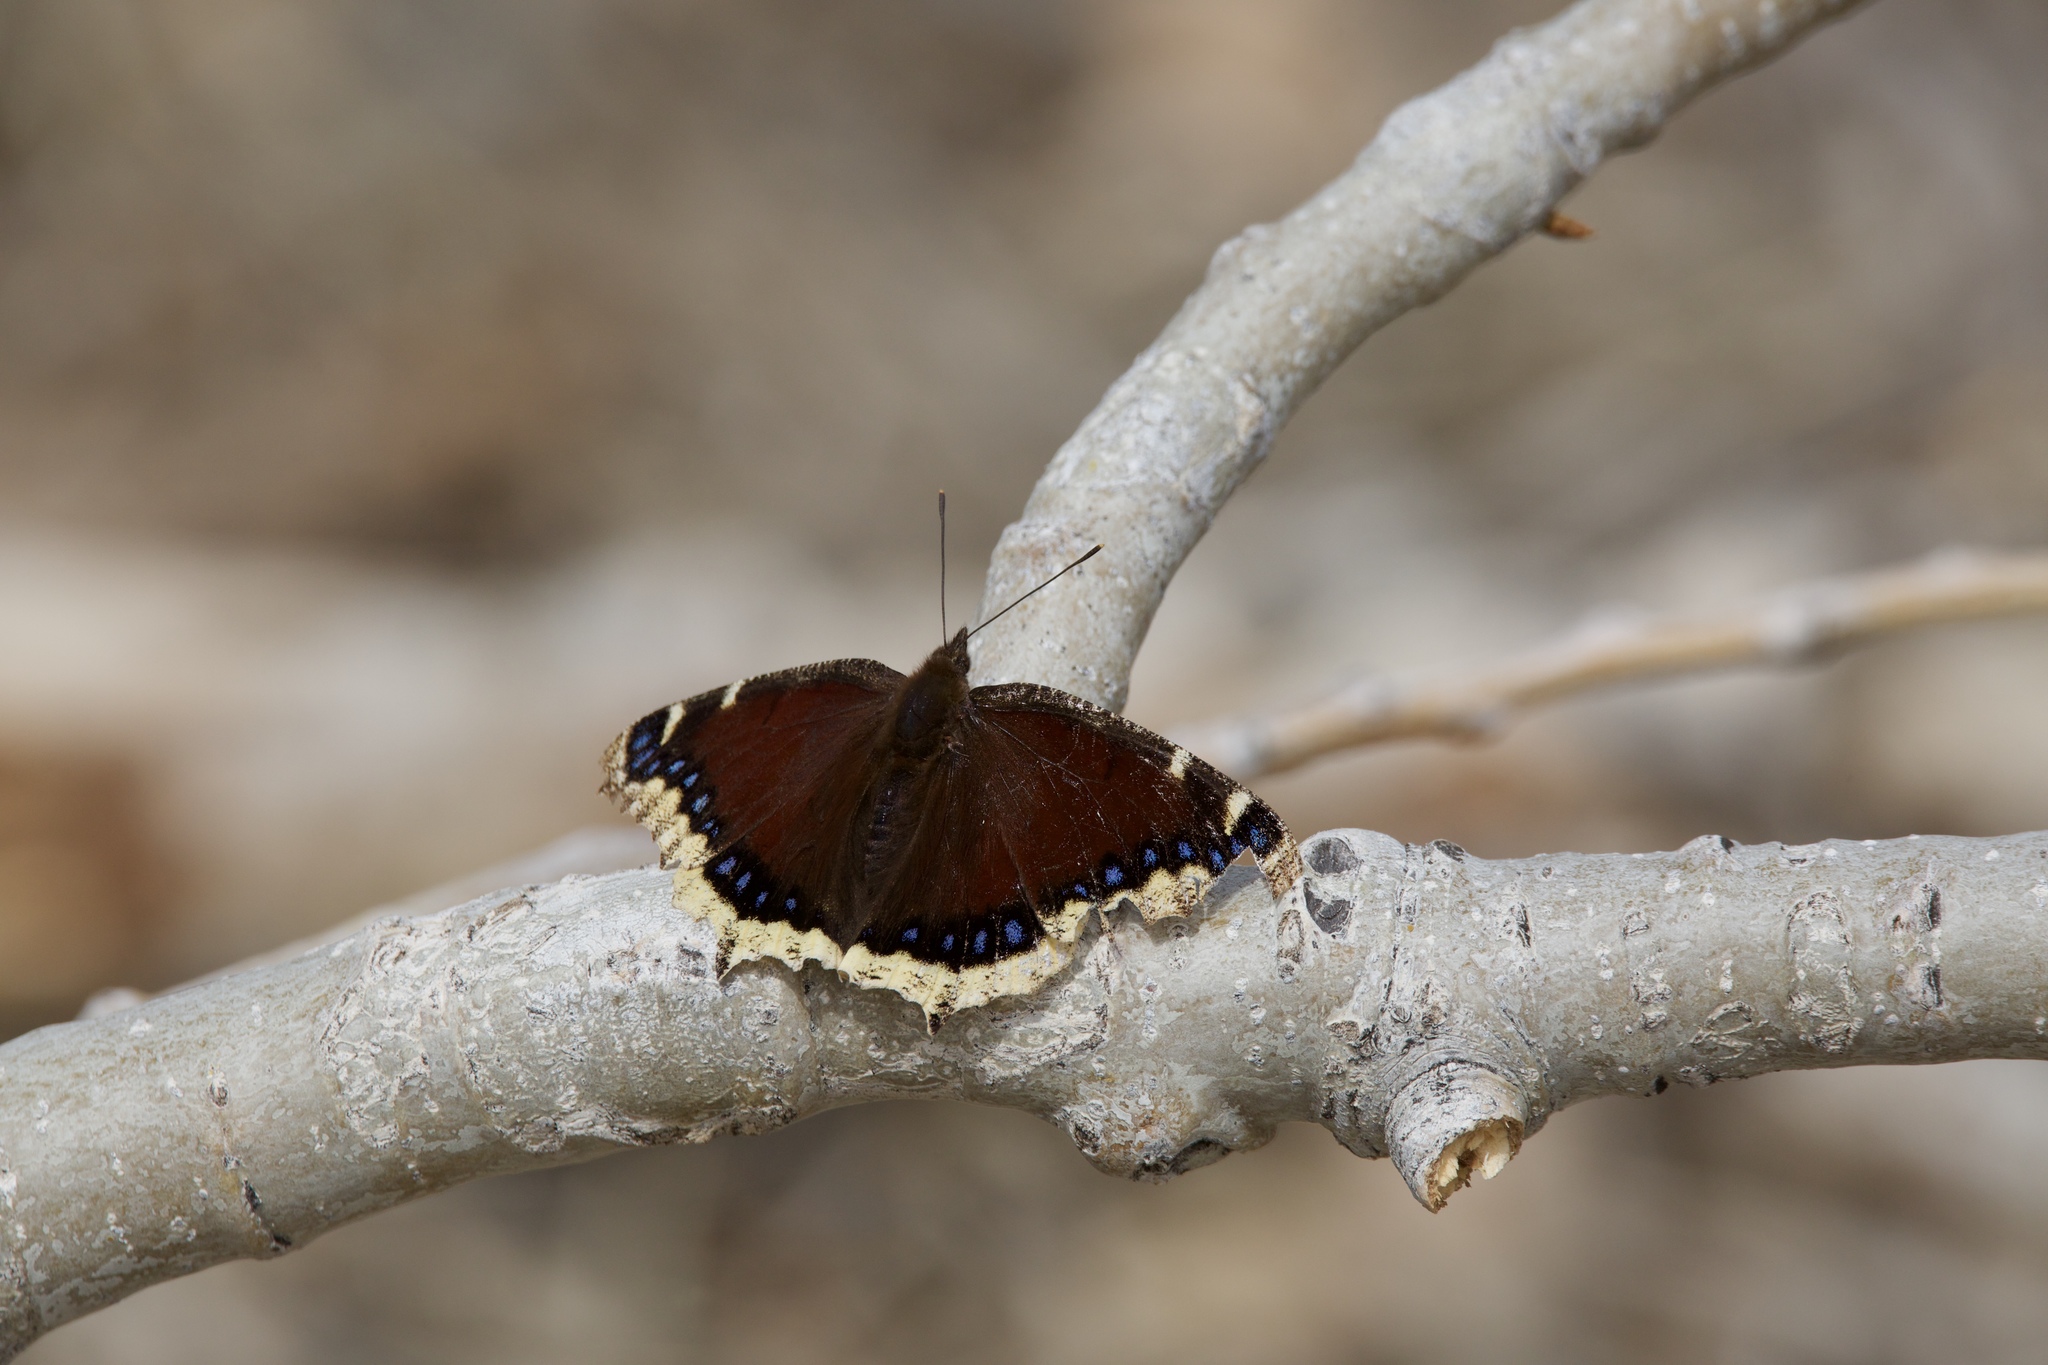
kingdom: Animalia
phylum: Arthropoda
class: Insecta
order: Lepidoptera
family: Nymphalidae
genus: Nymphalis
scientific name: Nymphalis antiopa
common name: Camberwell beauty
